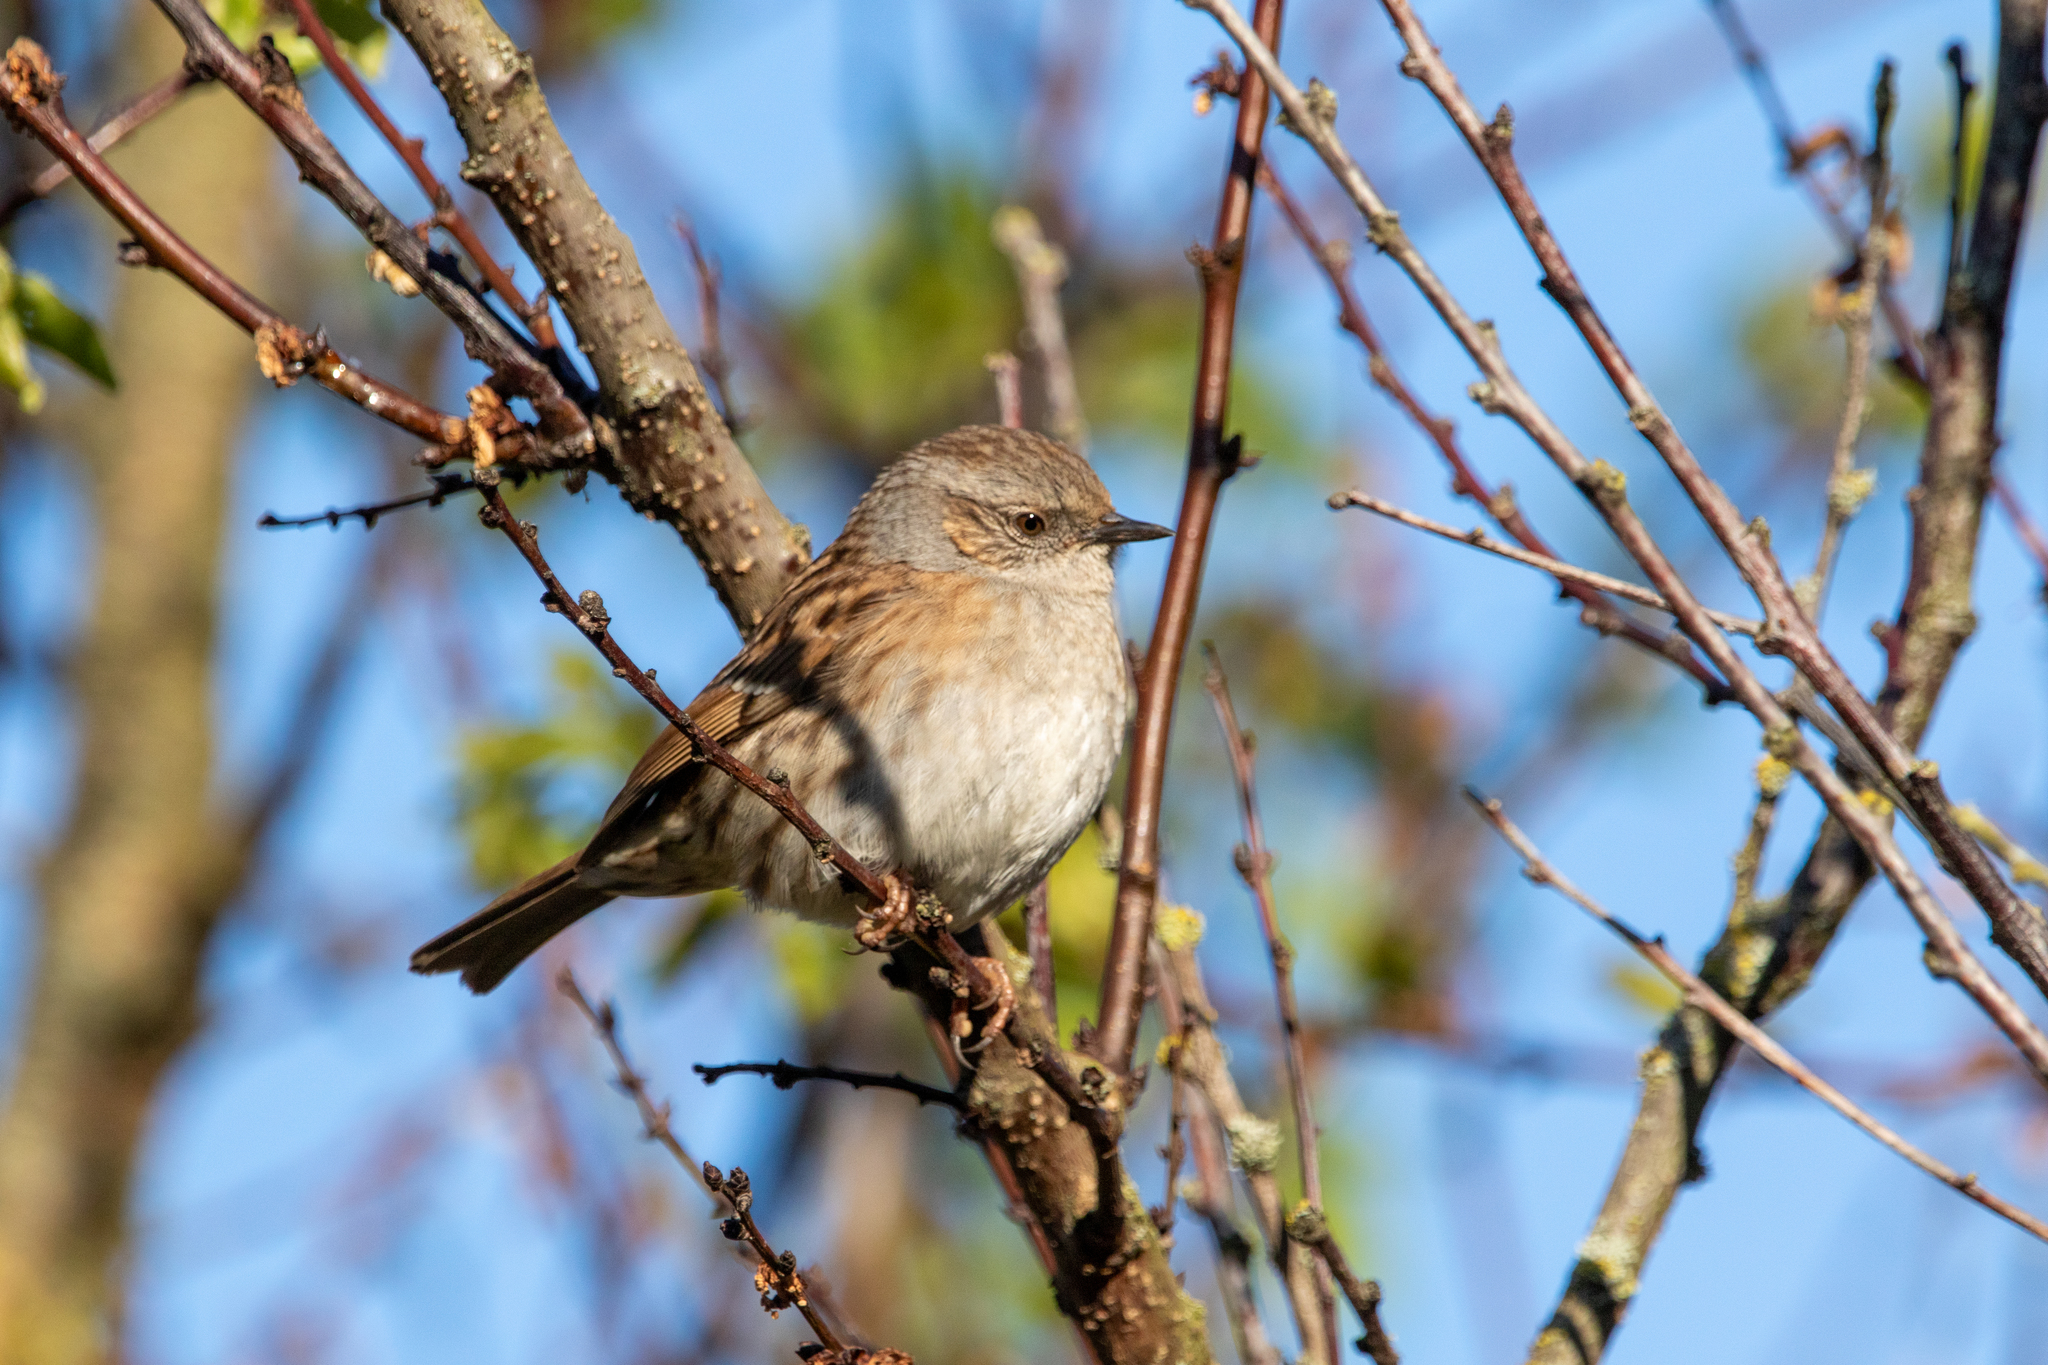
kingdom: Animalia
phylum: Chordata
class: Aves
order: Passeriformes
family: Prunellidae
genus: Prunella
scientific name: Prunella modularis
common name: Dunnock
